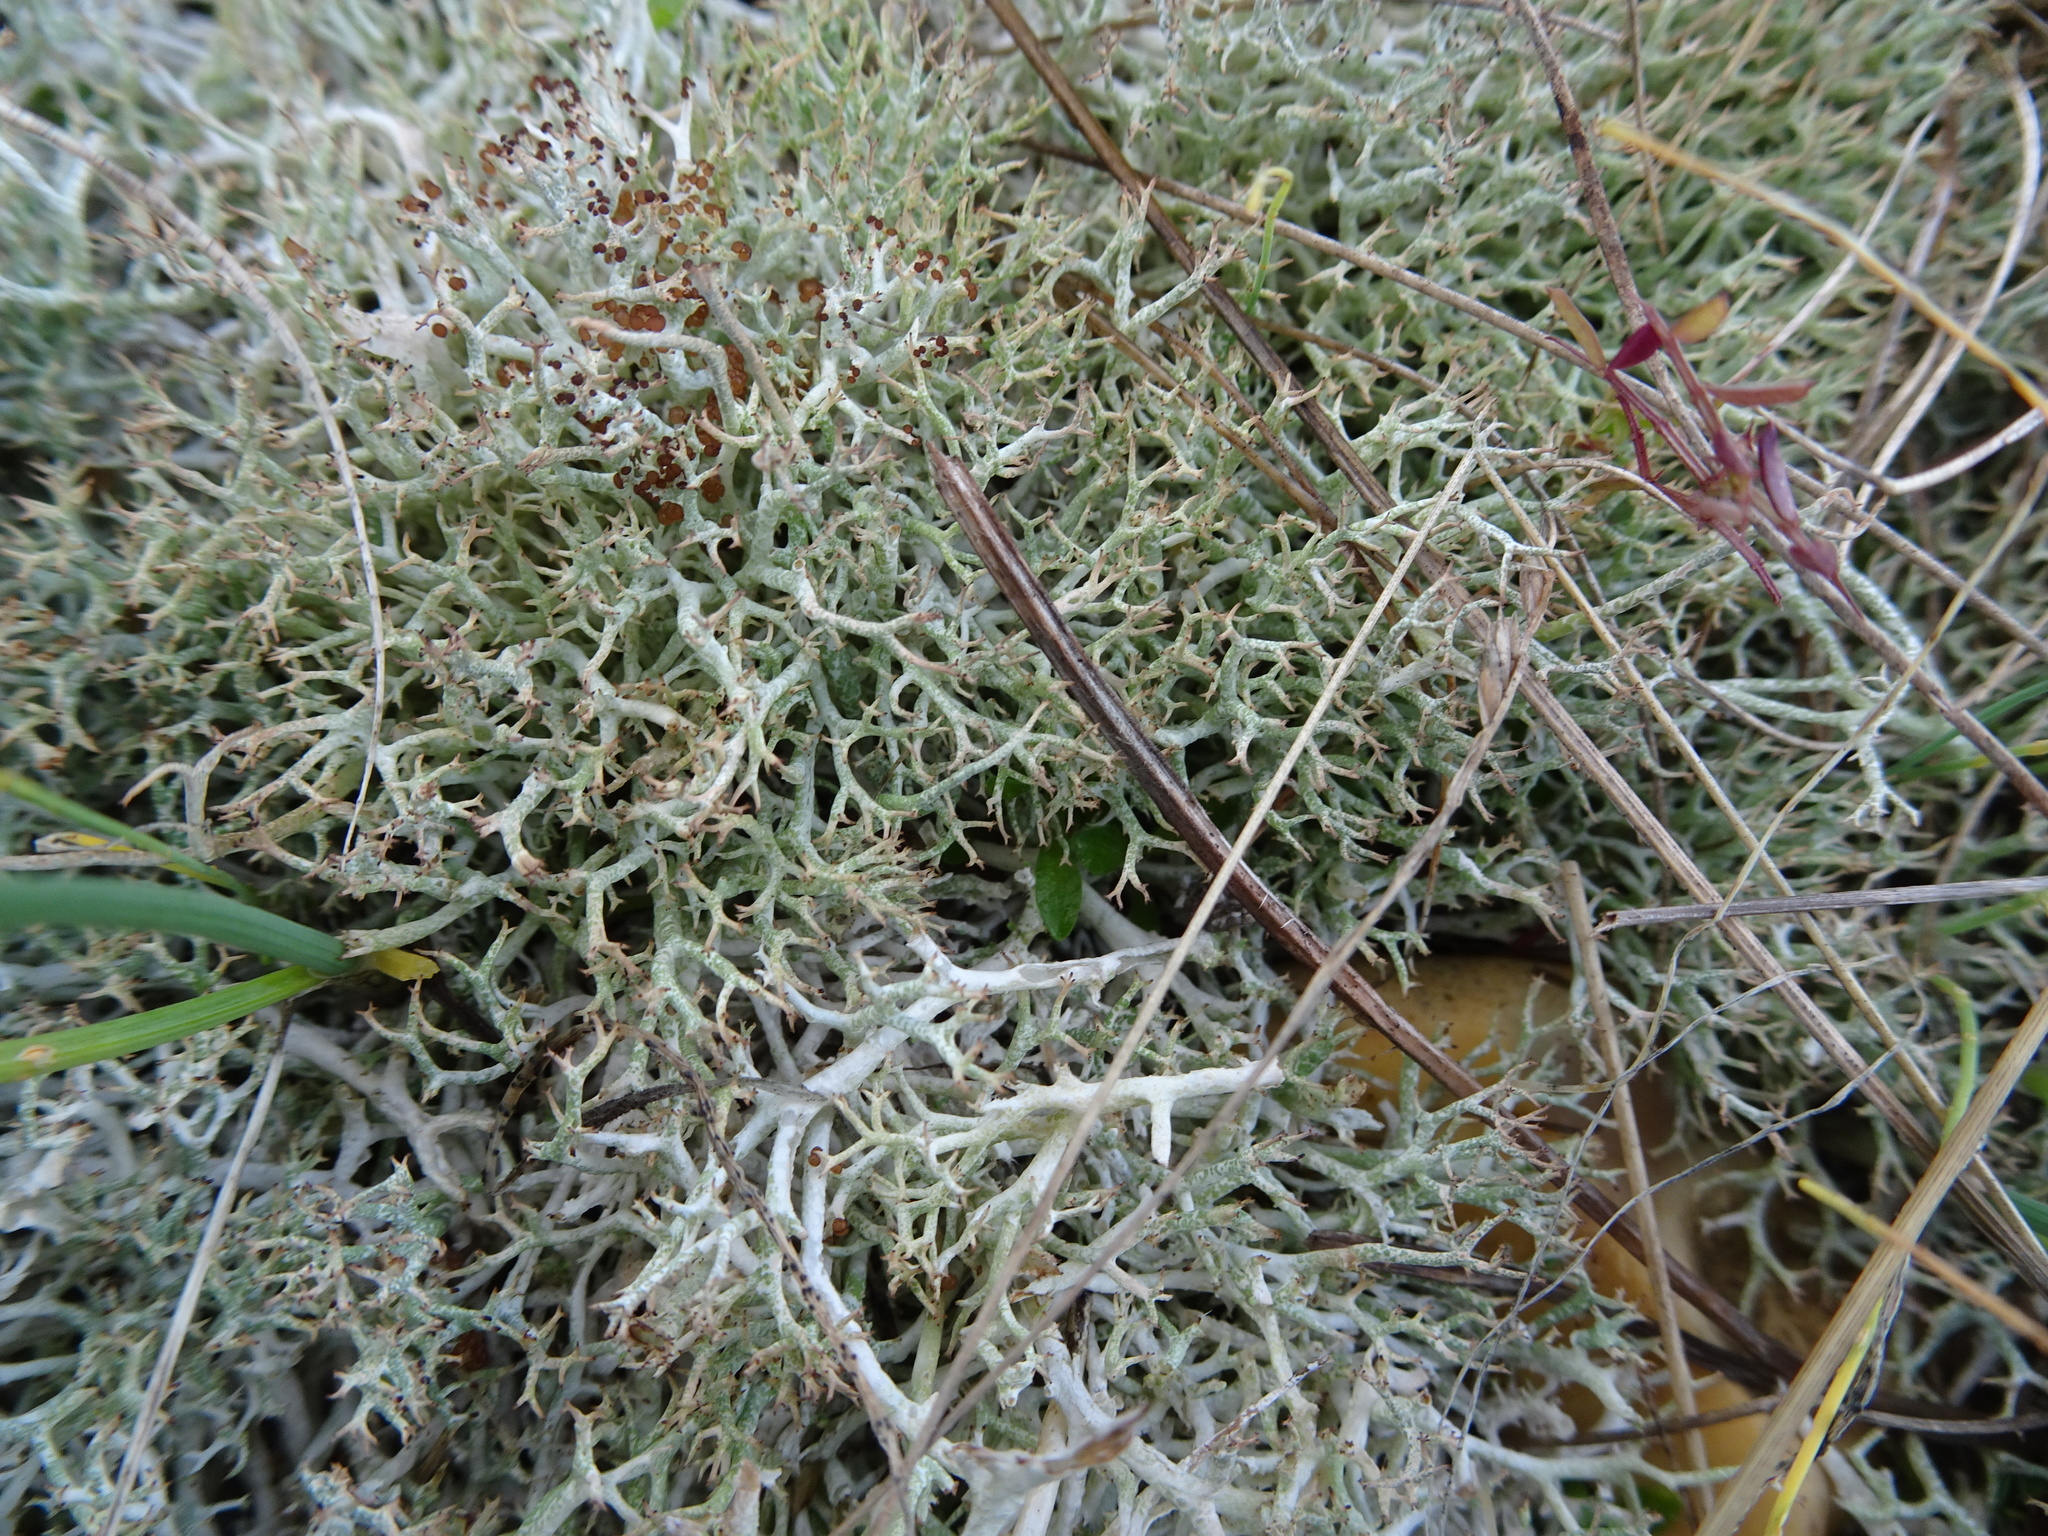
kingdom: Fungi
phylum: Ascomycota
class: Lecanoromycetes
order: Lecanorales
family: Cladoniaceae
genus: Cladonia
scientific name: Cladonia rangiformis
